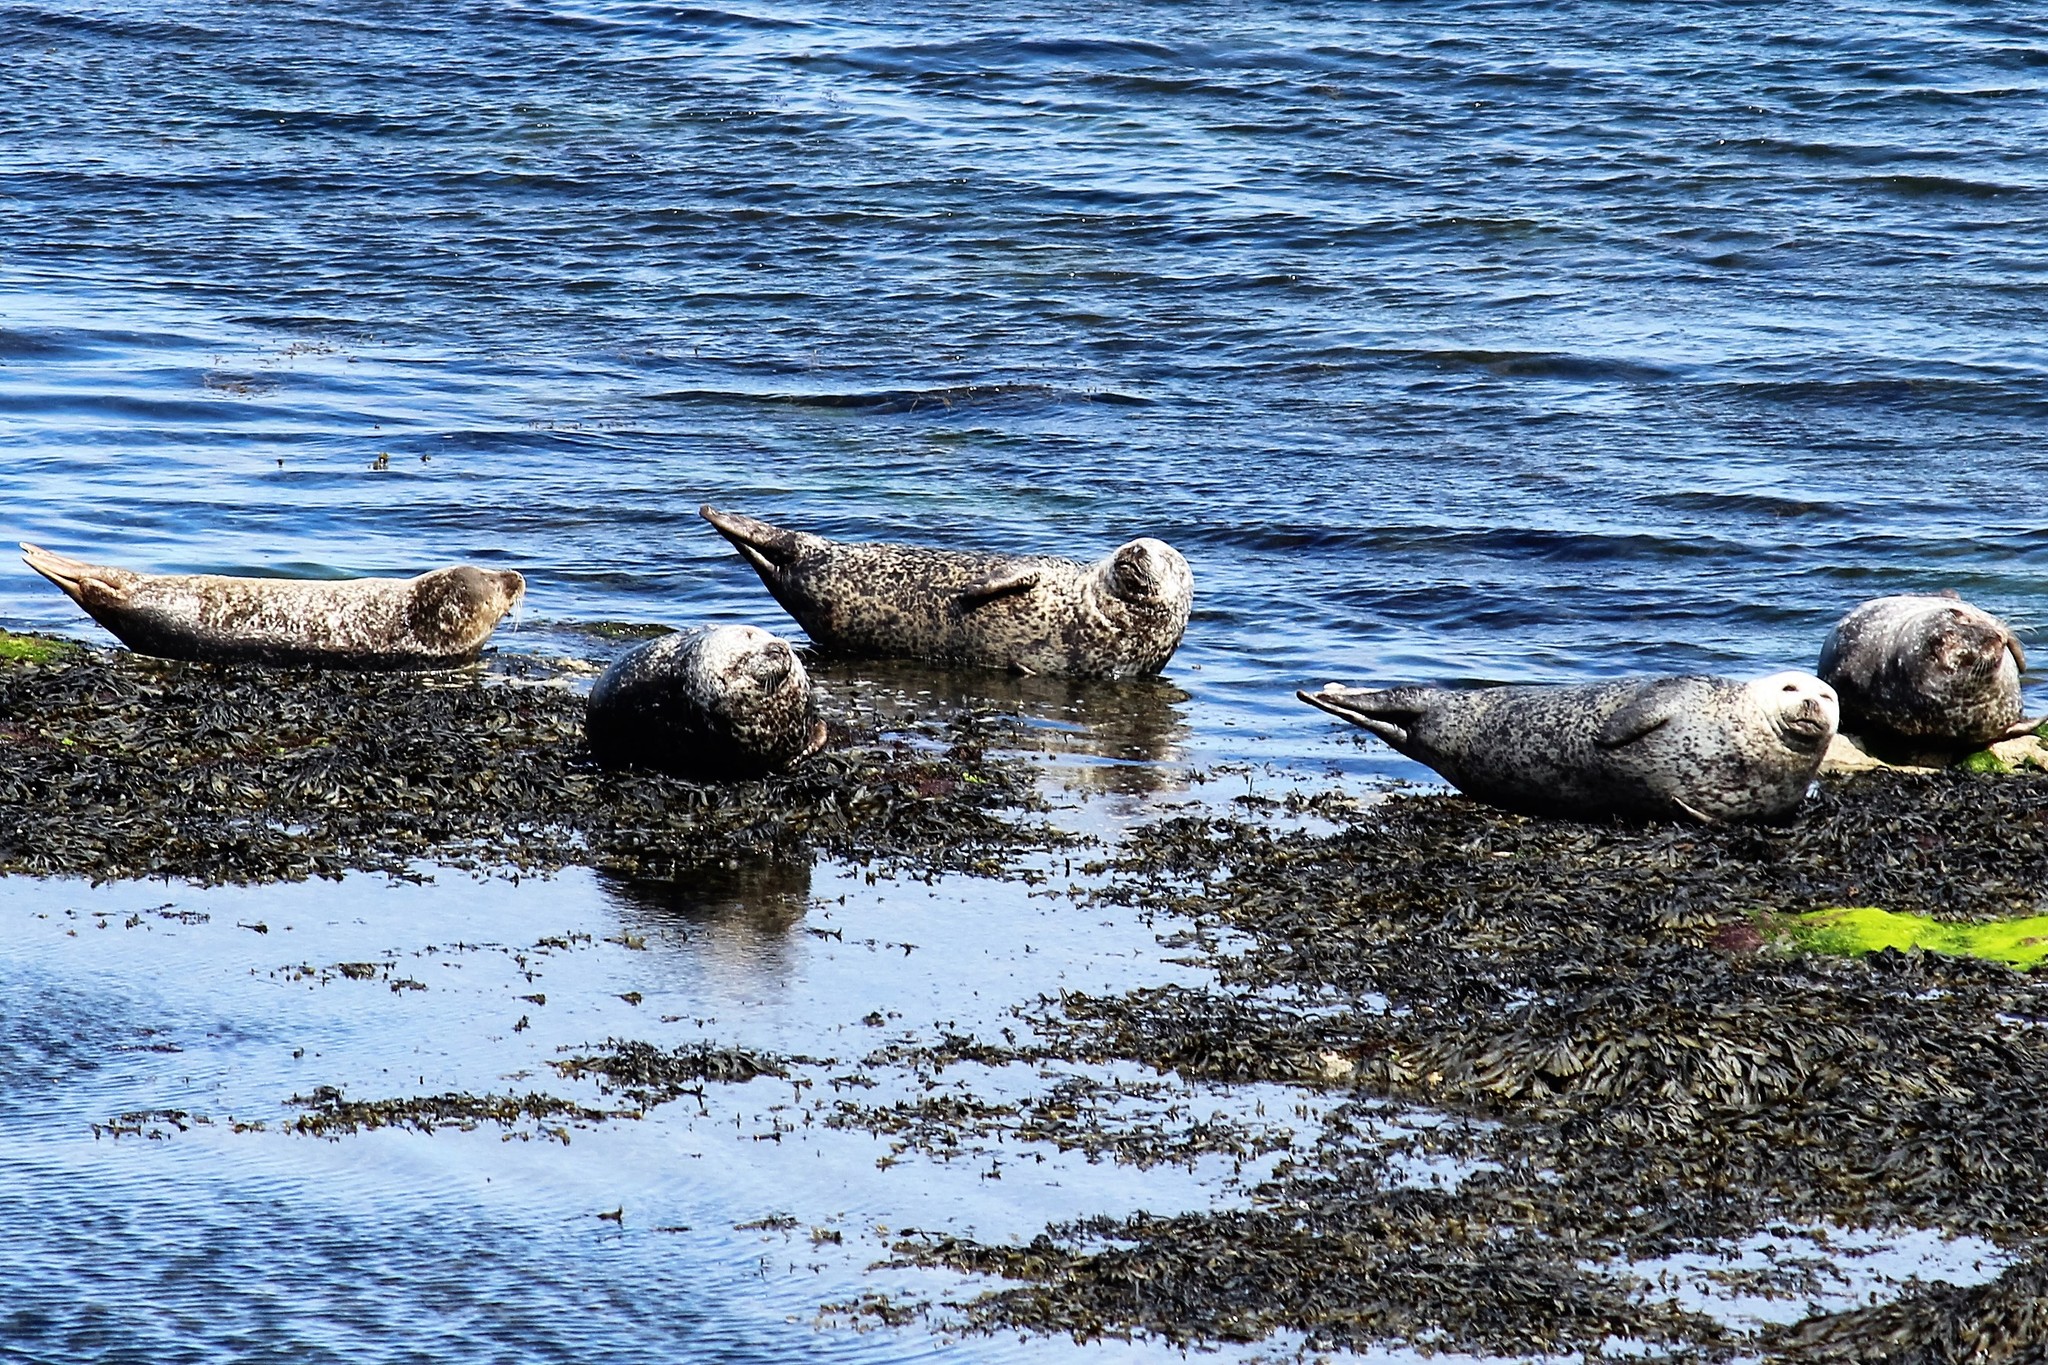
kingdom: Animalia
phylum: Chordata
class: Mammalia
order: Carnivora
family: Phocidae
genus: Phoca
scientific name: Phoca vitulina
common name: Harbor seal
